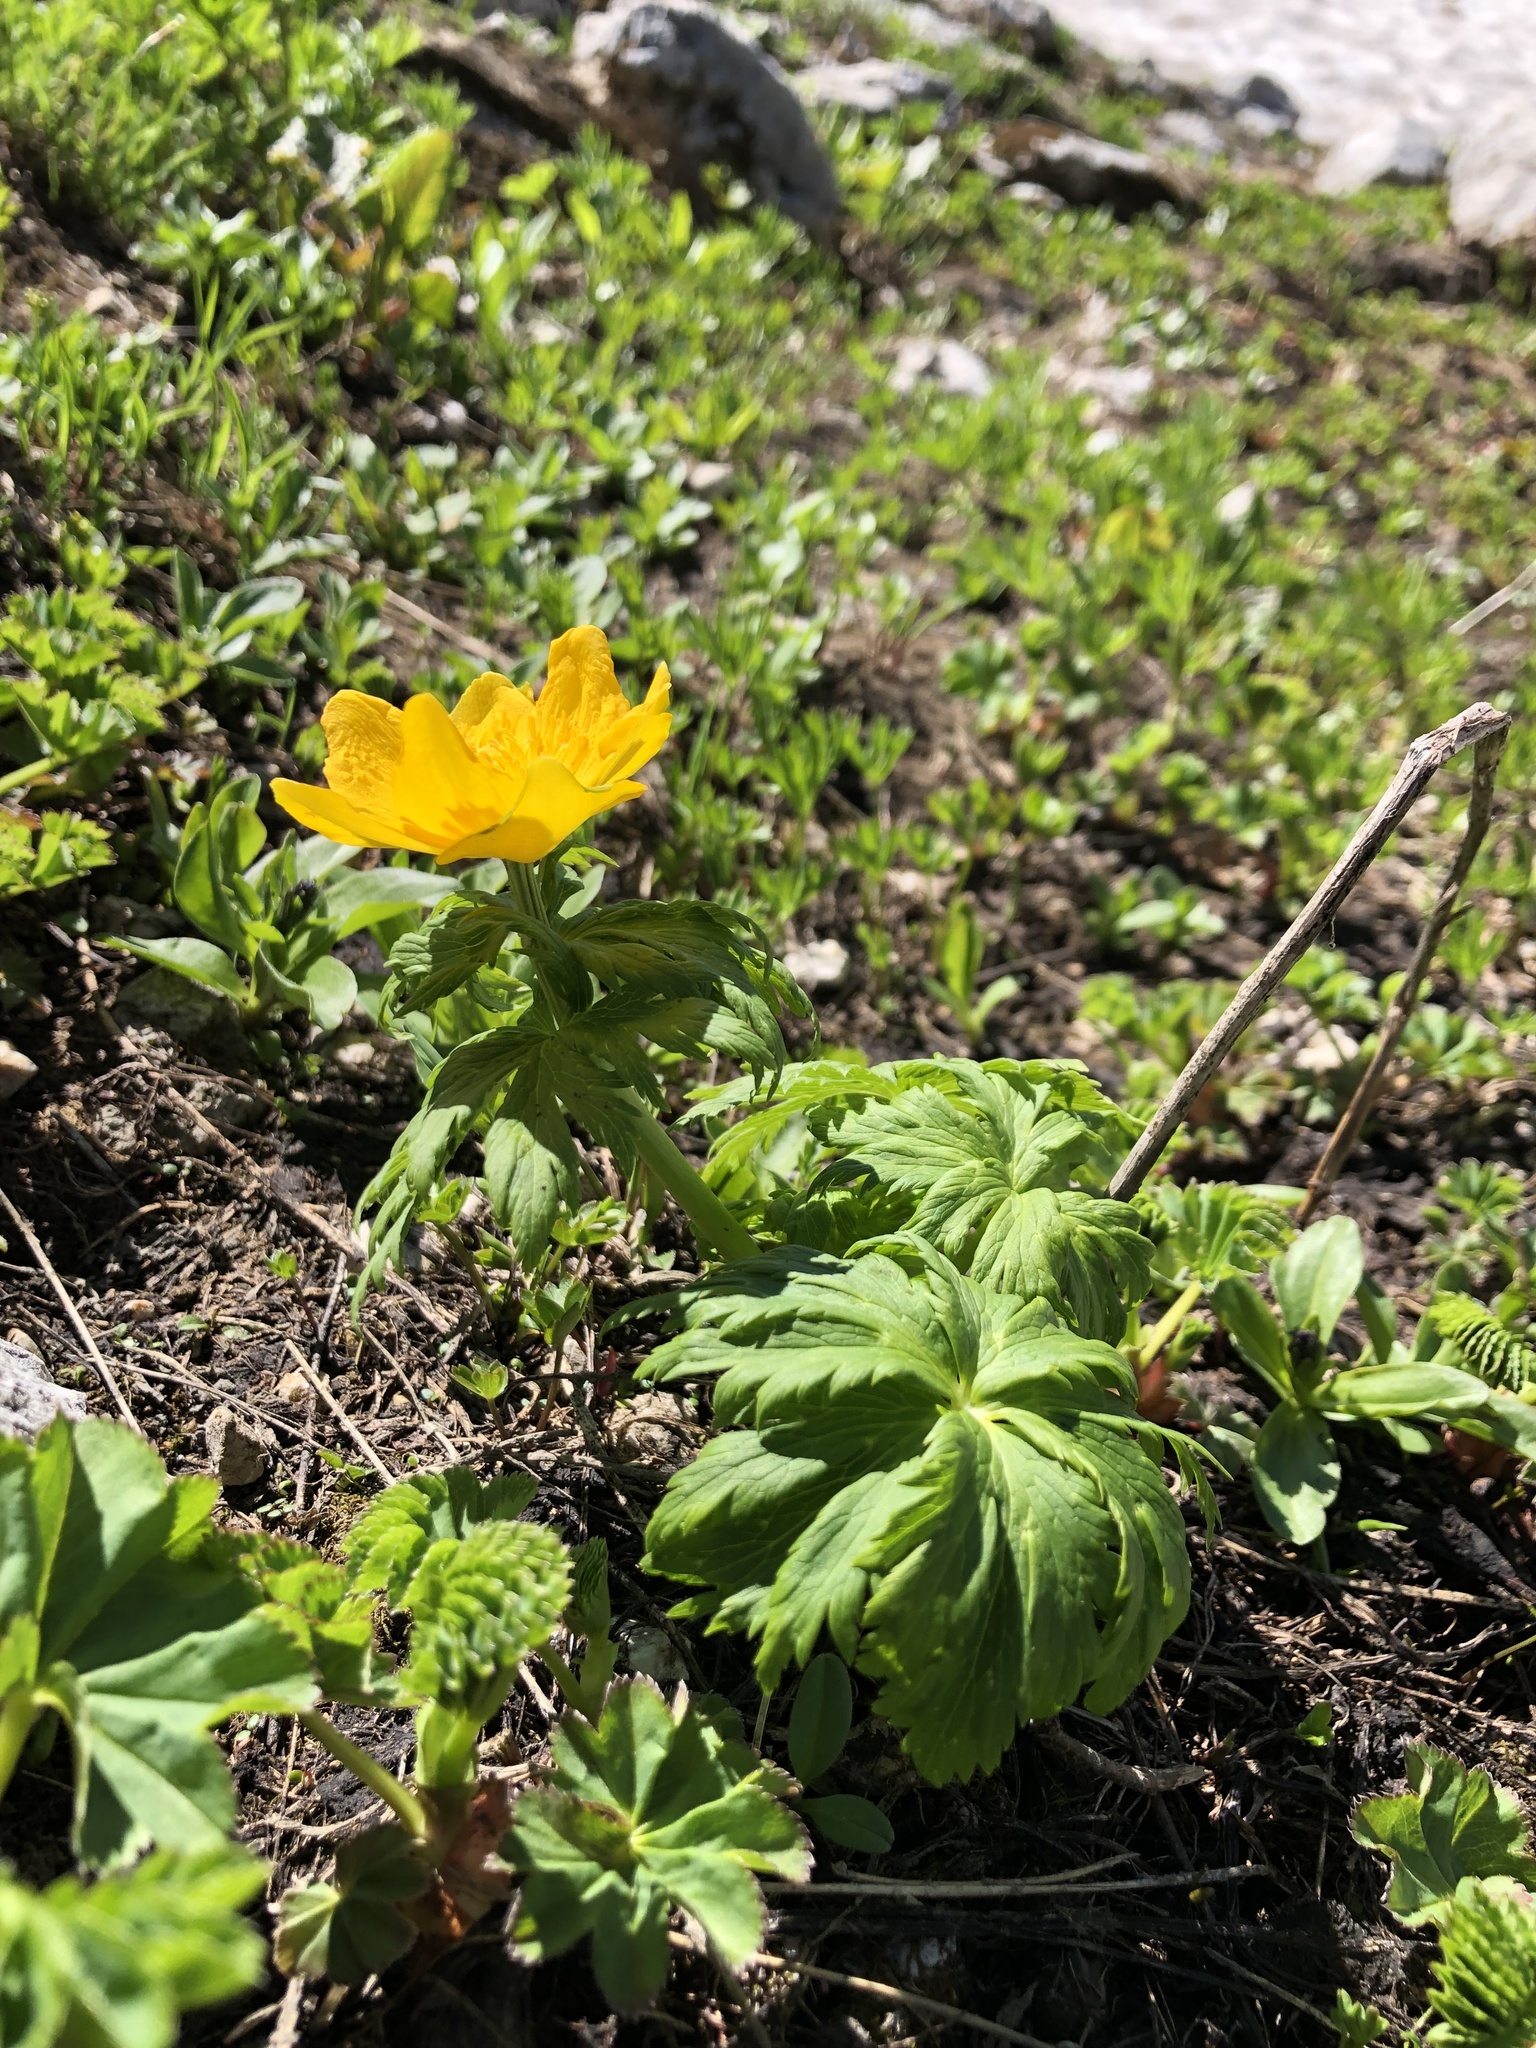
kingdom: Plantae
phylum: Tracheophyta
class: Magnoliopsida
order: Ranunculales
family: Ranunculaceae
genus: Trollius
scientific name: Trollius ranunculinus
